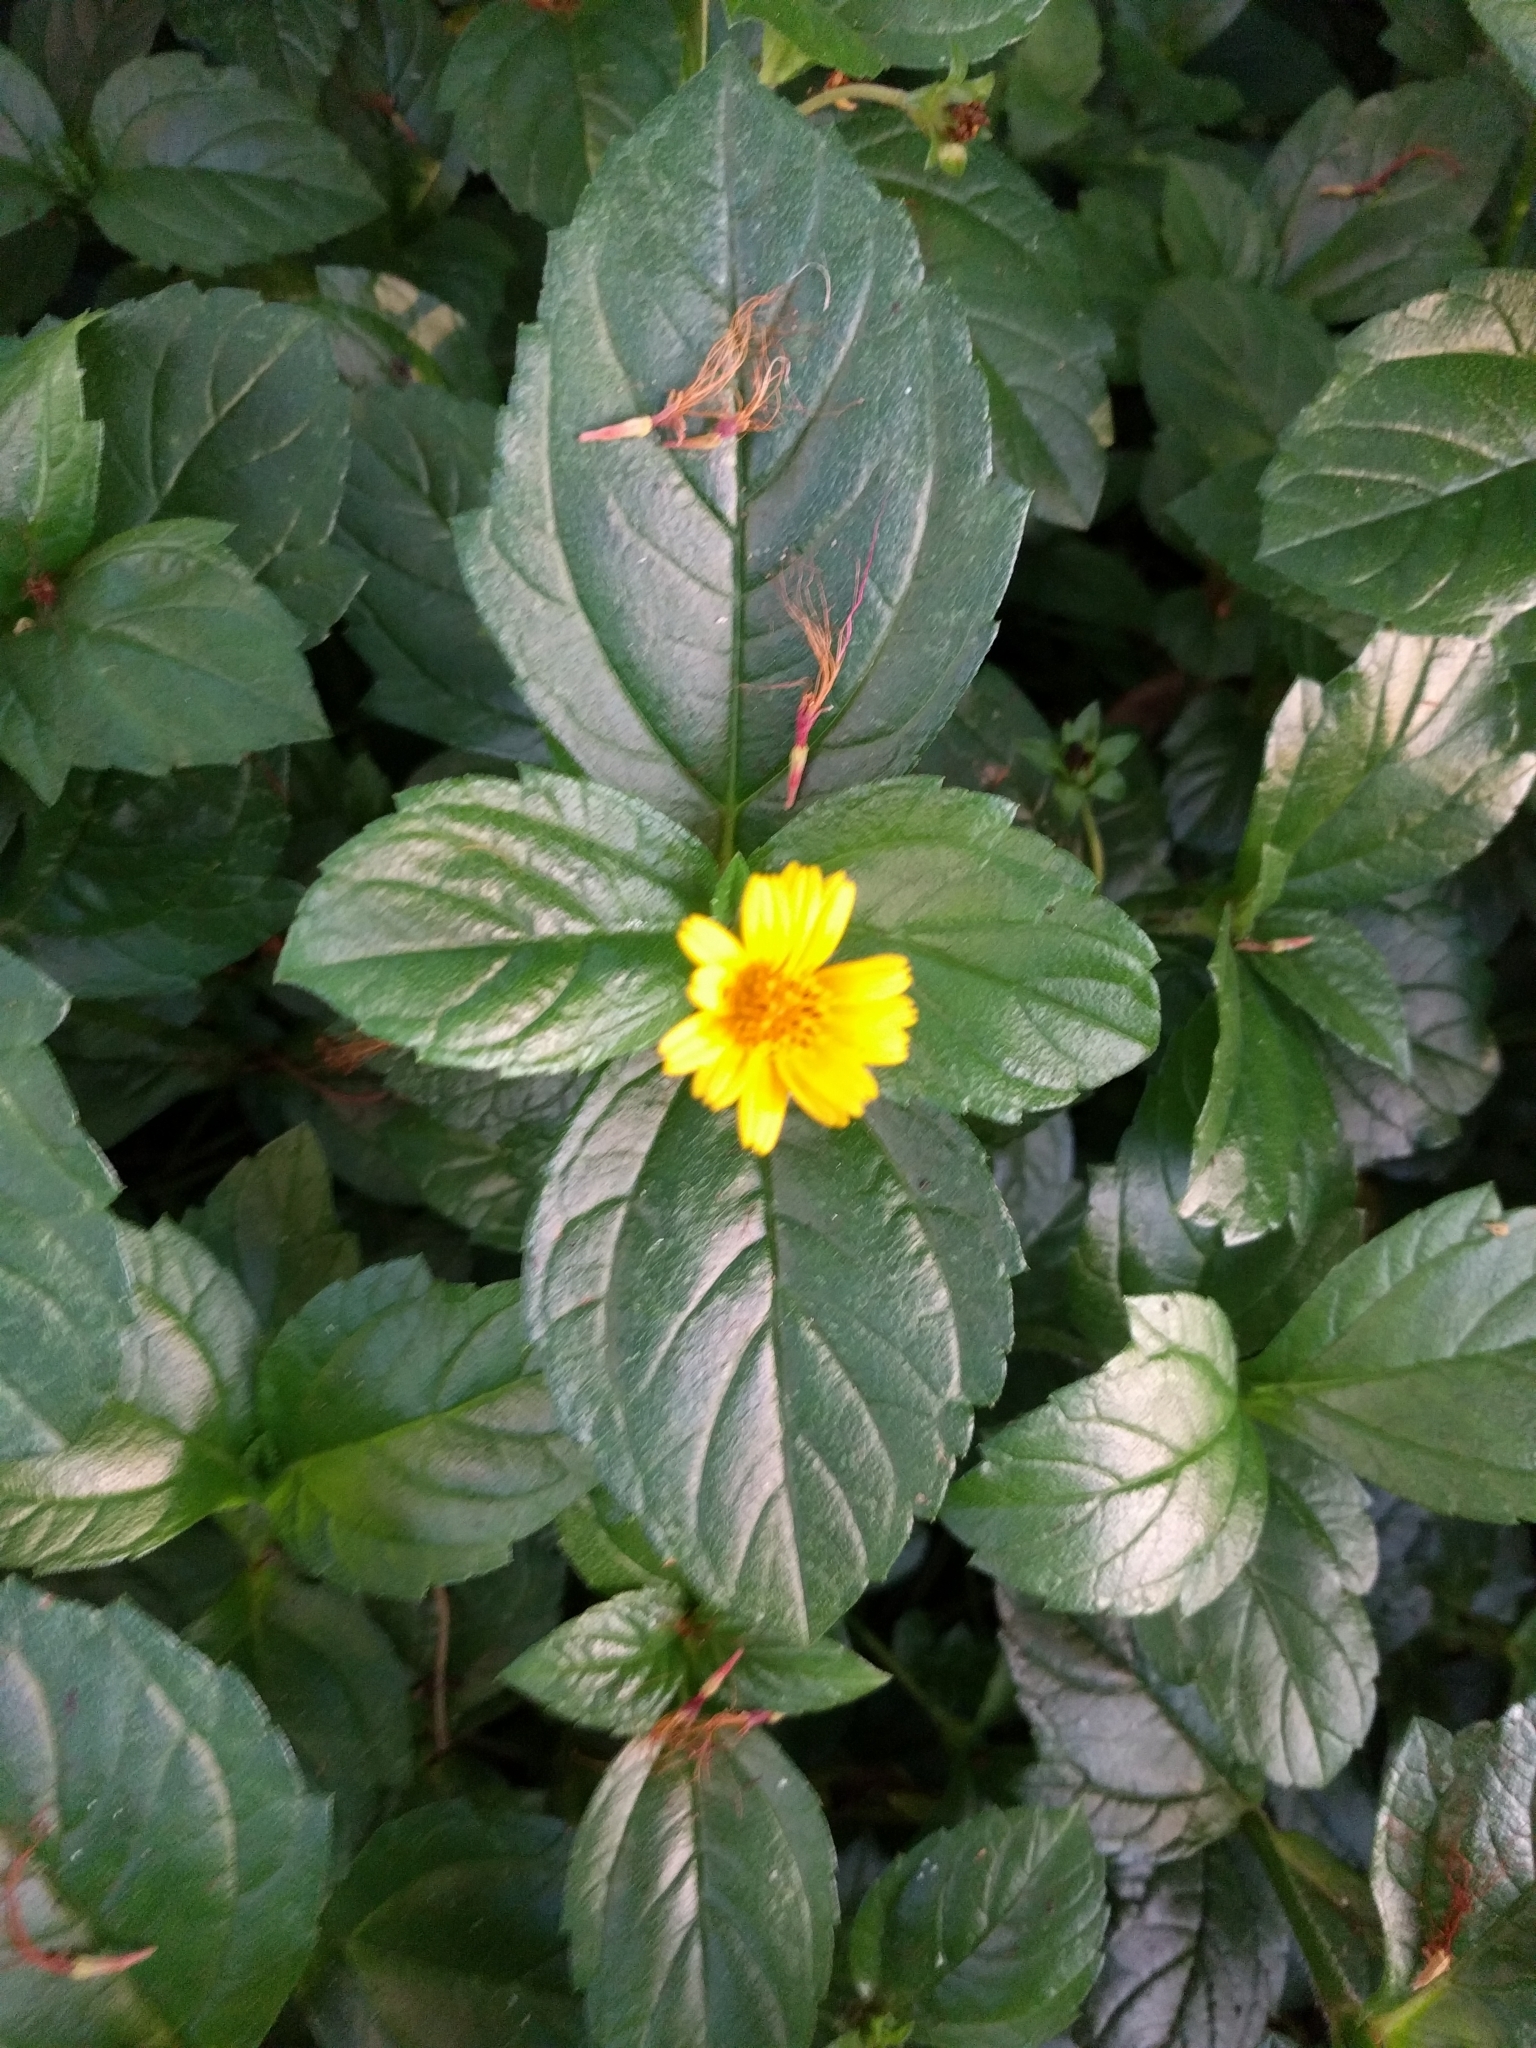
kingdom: Plantae
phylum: Tracheophyta
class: Magnoliopsida
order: Asterales
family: Asteraceae
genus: Sphagneticola
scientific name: Sphagneticola trilobata
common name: Bay biscayne creeping-oxeye
